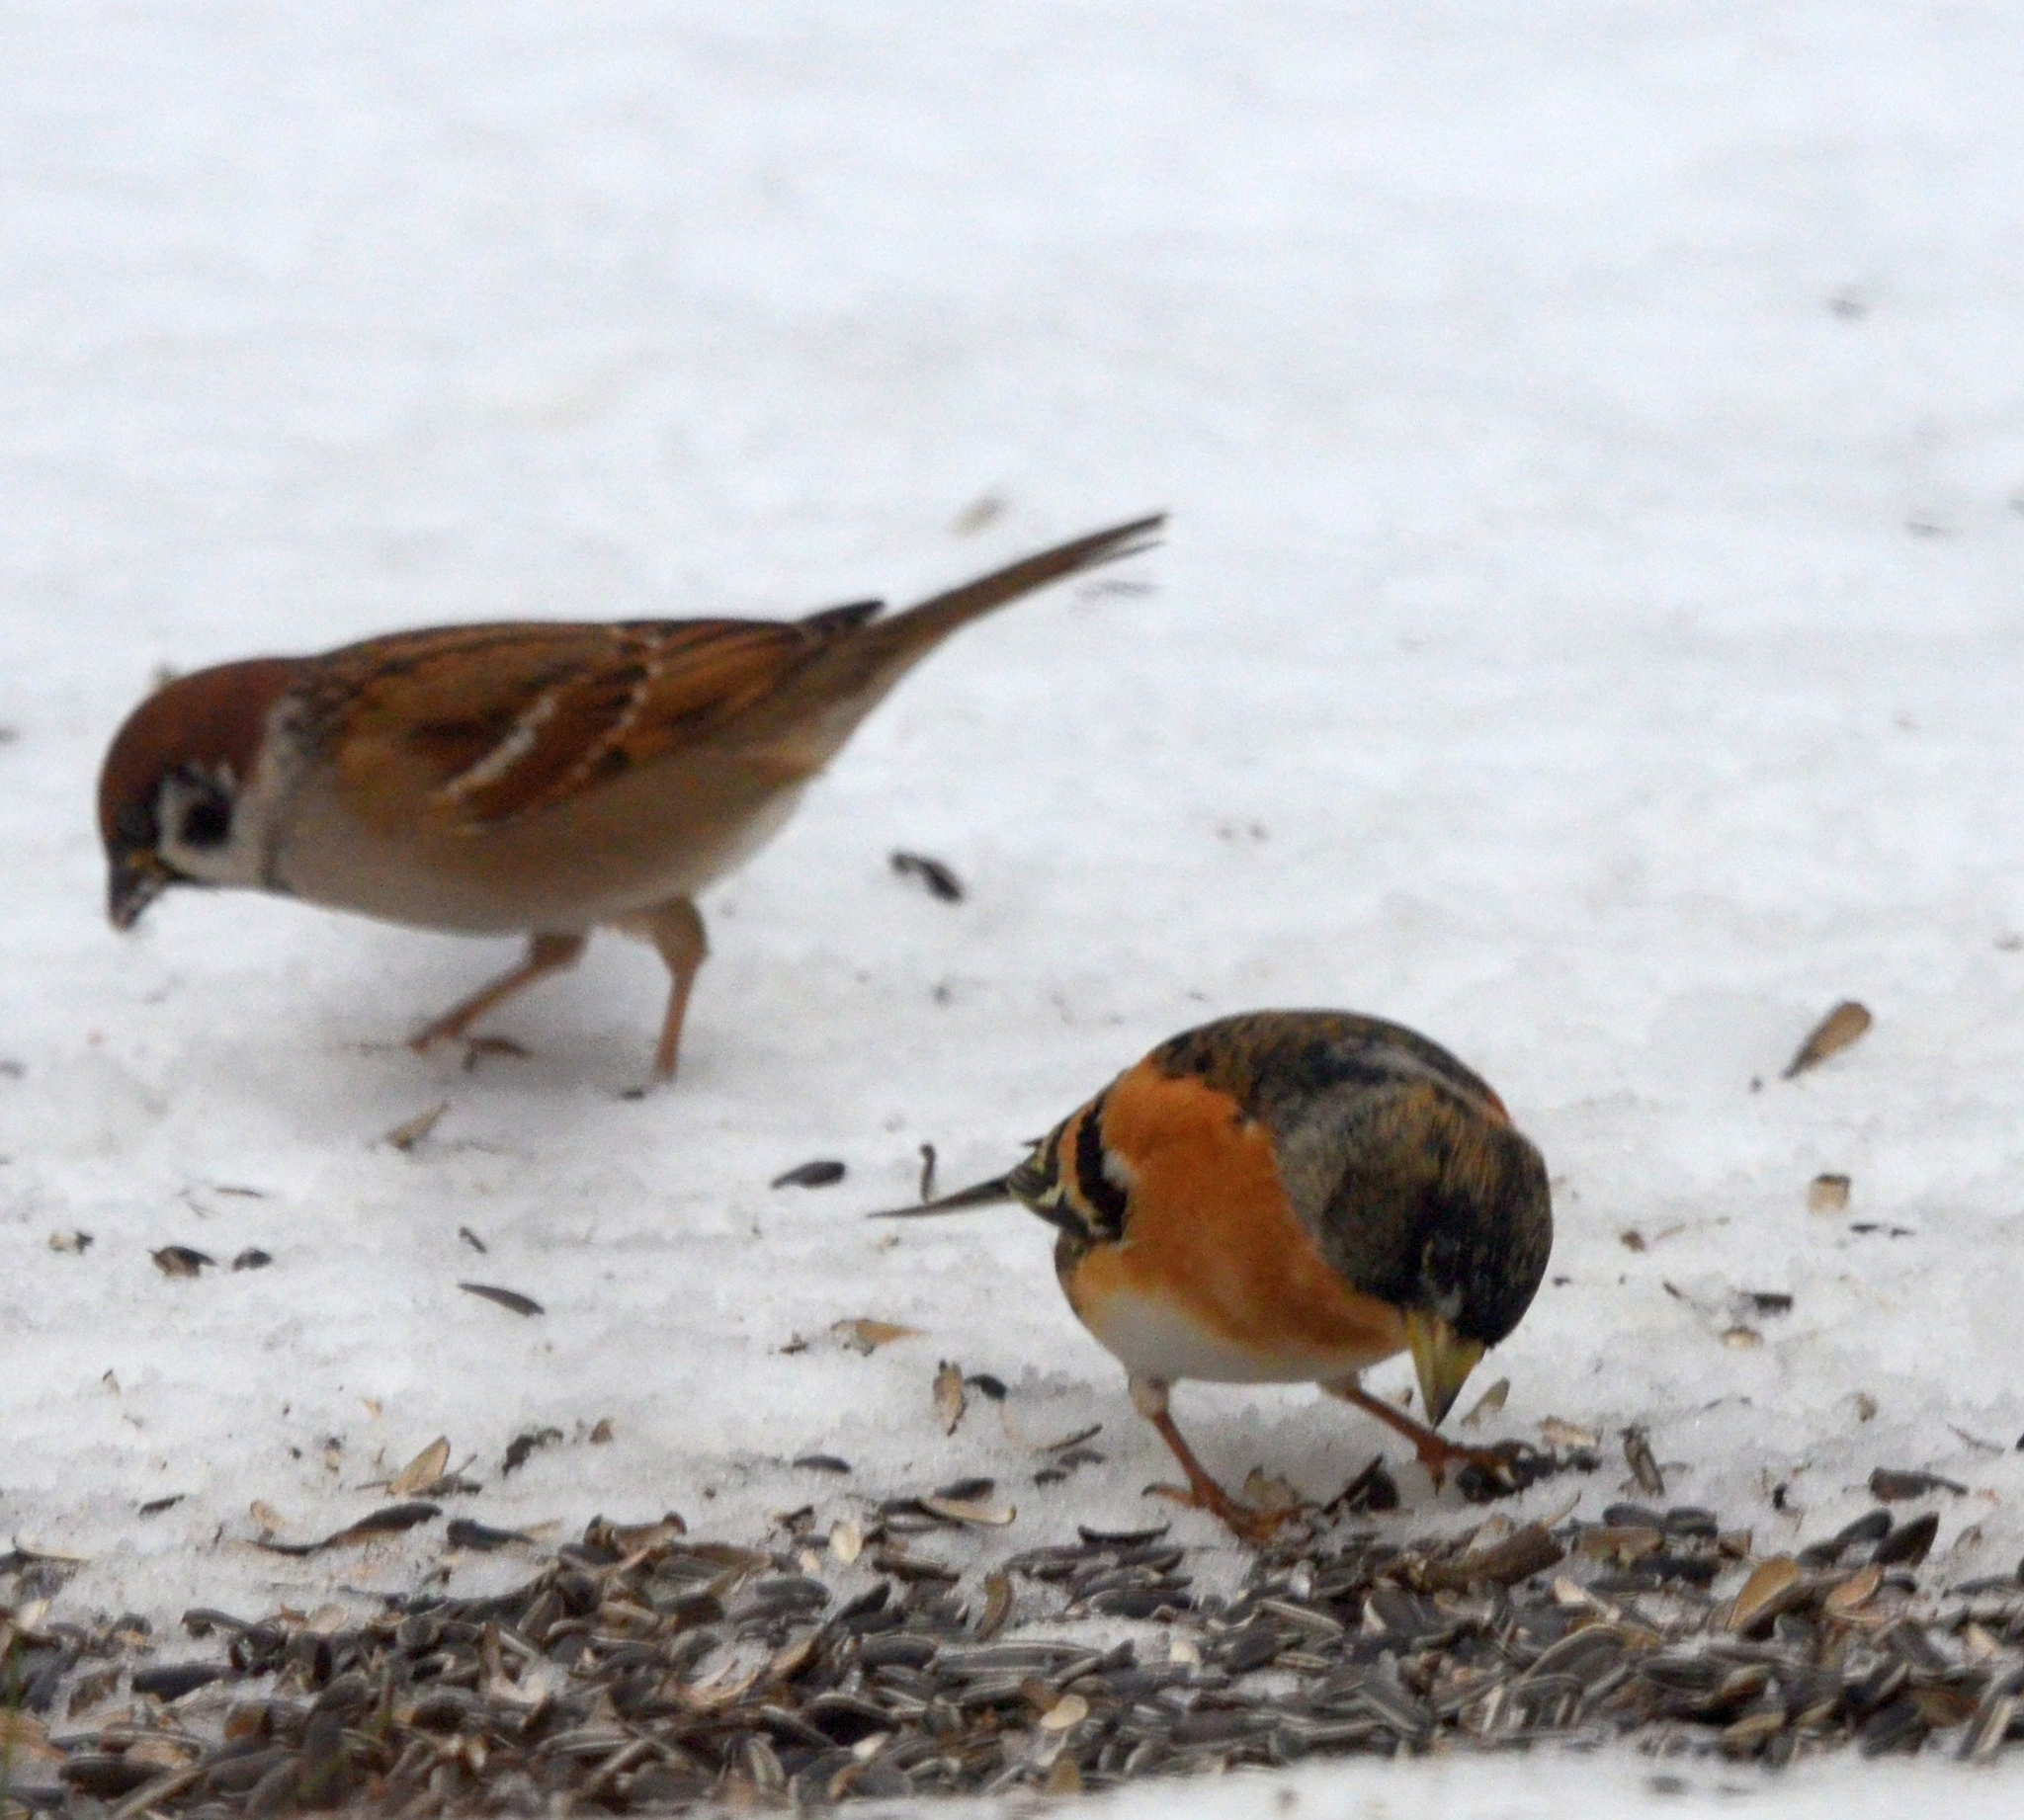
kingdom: Animalia
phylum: Chordata
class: Aves
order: Passeriformes
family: Fringillidae
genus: Fringilla
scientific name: Fringilla montifringilla
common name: Brambling
